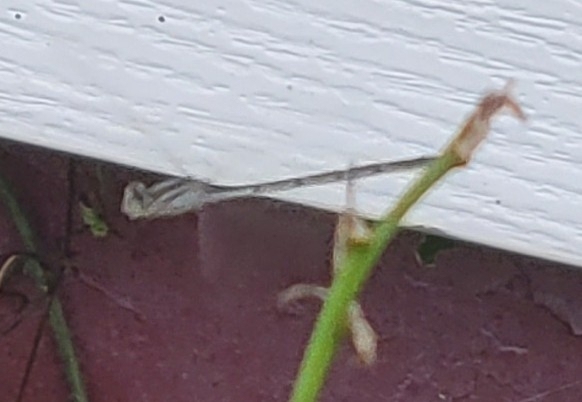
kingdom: Animalia
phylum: Arthropoda
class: Insecta
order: Odonata
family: Coenagrionidae
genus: Enallagma
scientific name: Enallagma civile
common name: Damselfly
